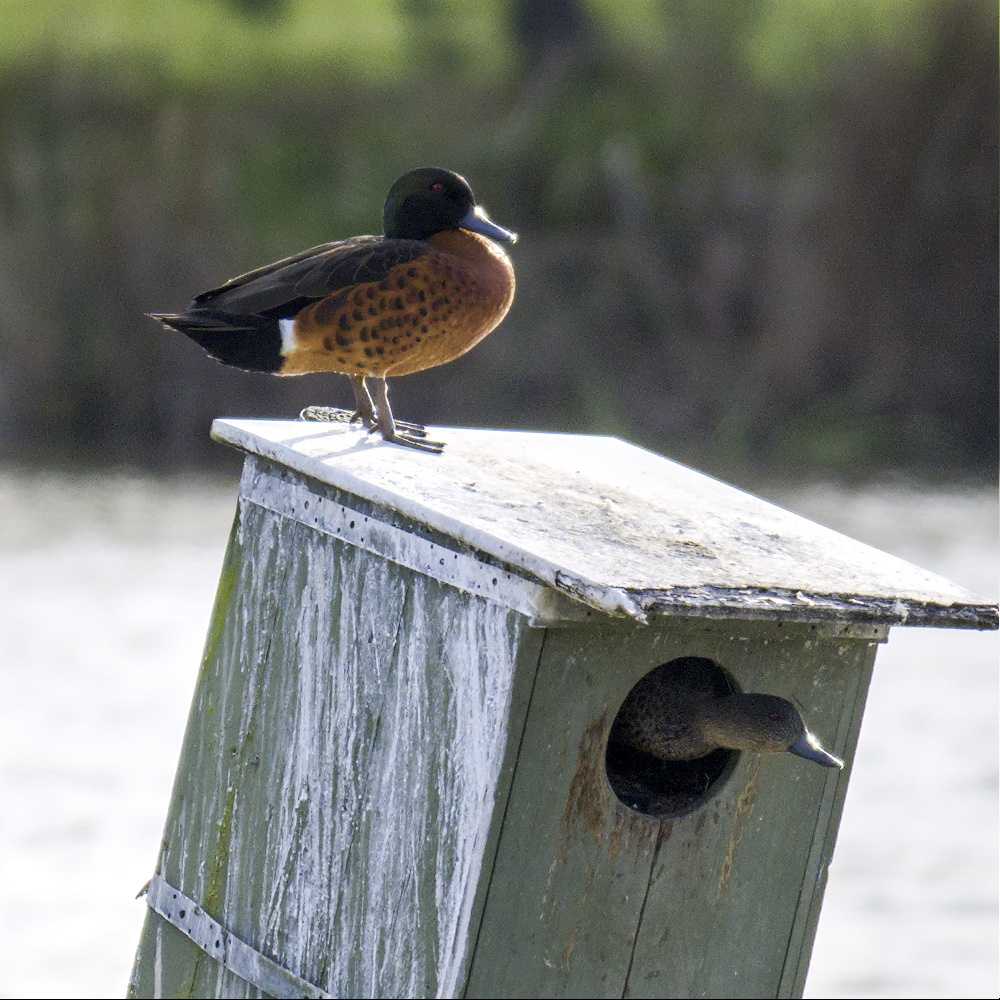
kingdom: Animalia
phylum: Chordata
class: Aves
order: Anseriformes
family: Anatidae
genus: Anas
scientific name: Anas castanea
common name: Chestnut teal
